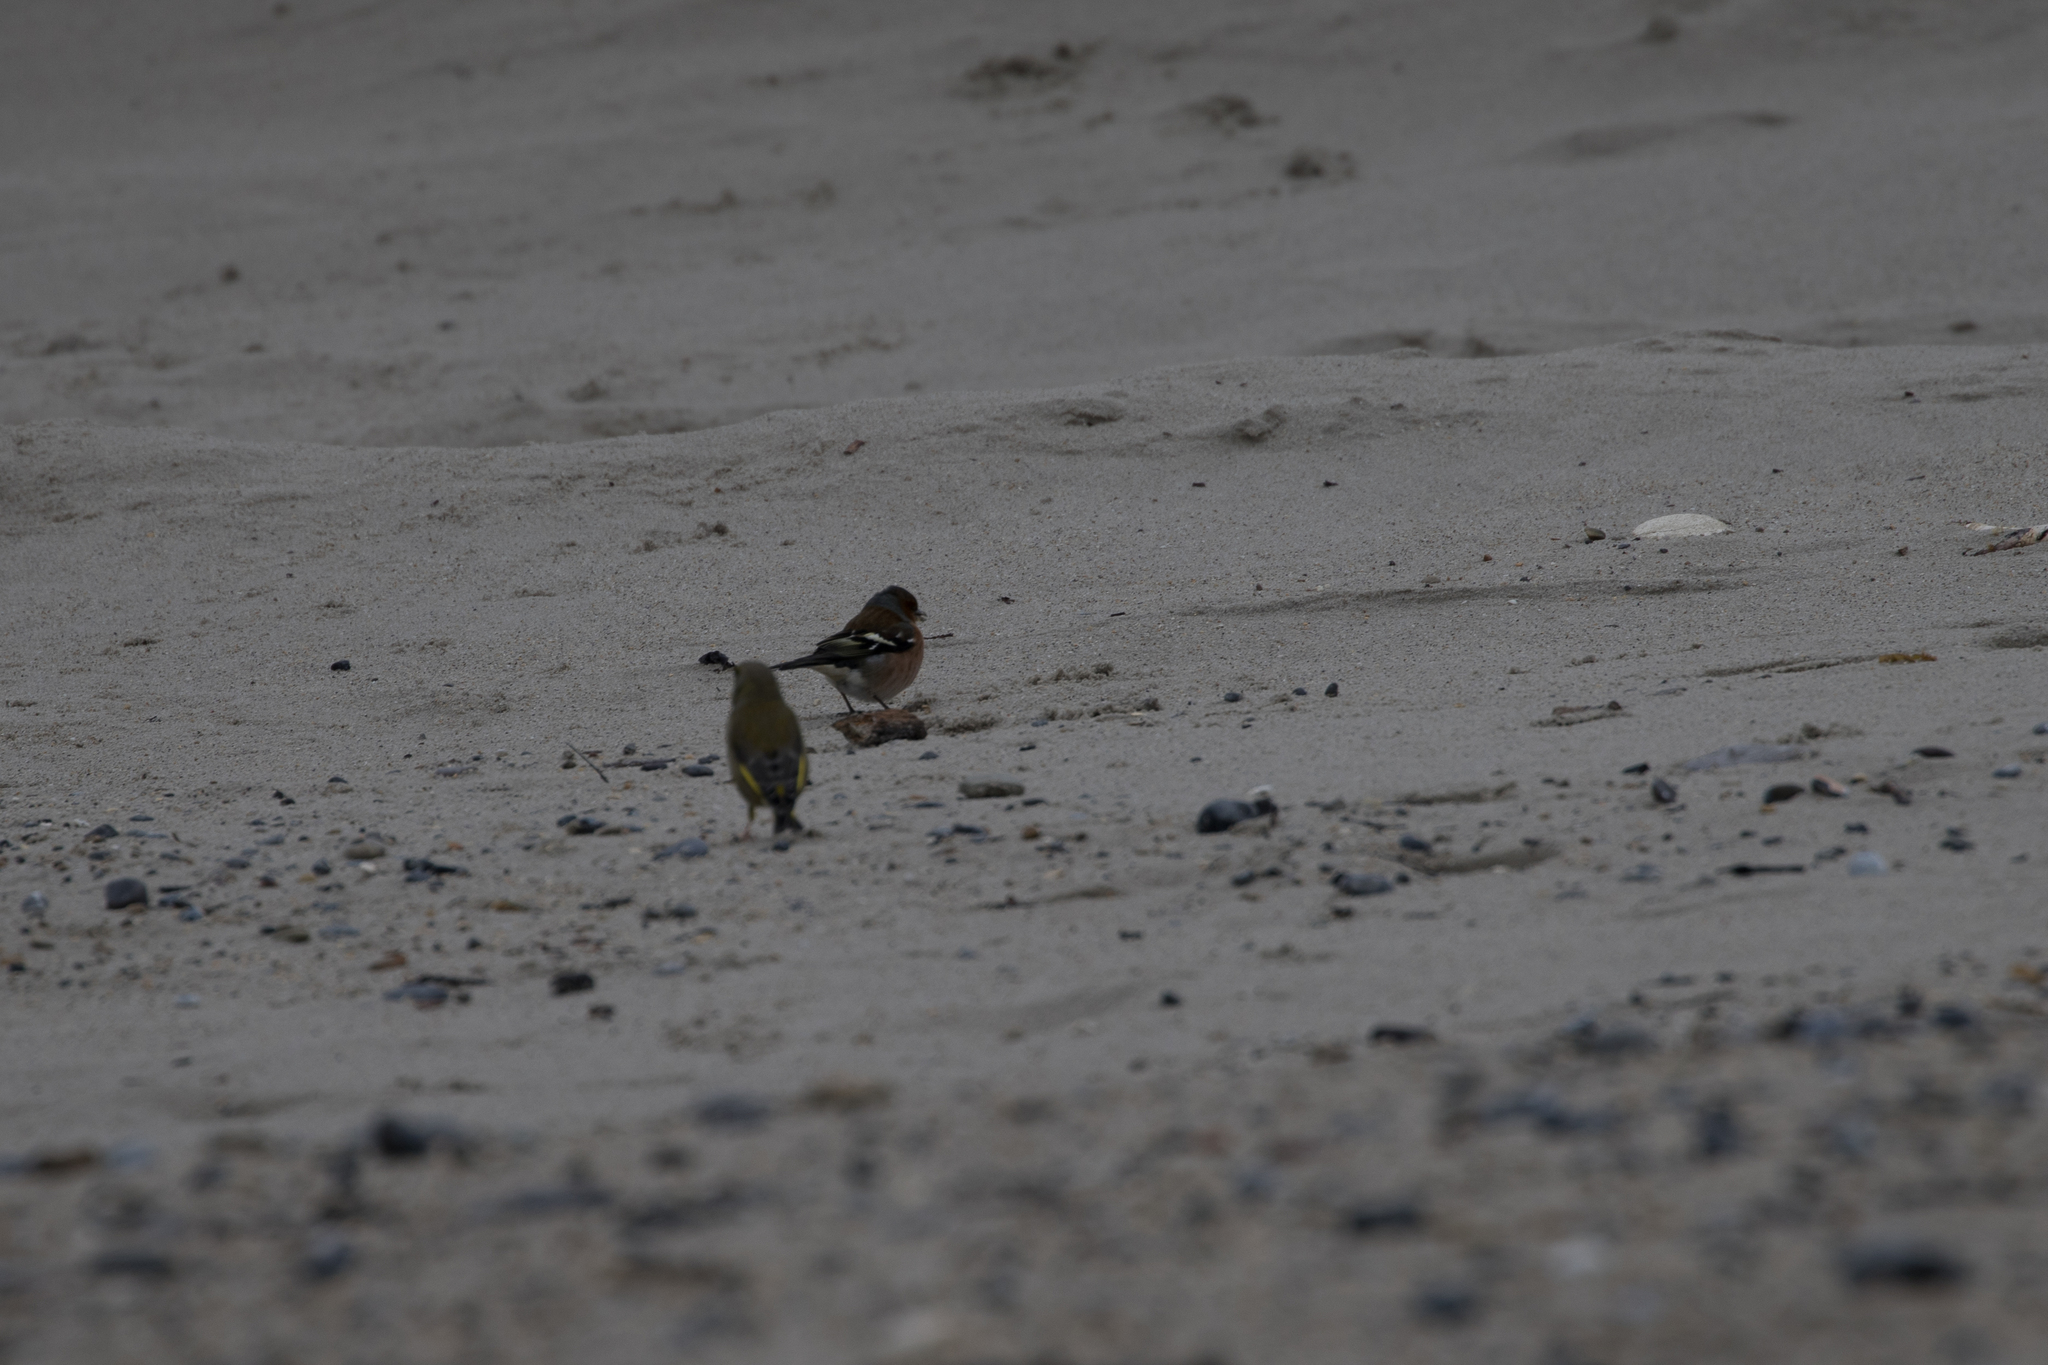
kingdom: Animalia
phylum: Chordata
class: Aves
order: Passeriformes
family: Fringillidae
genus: Fringilla
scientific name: Fringilla coelebs
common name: Common chaffinch
